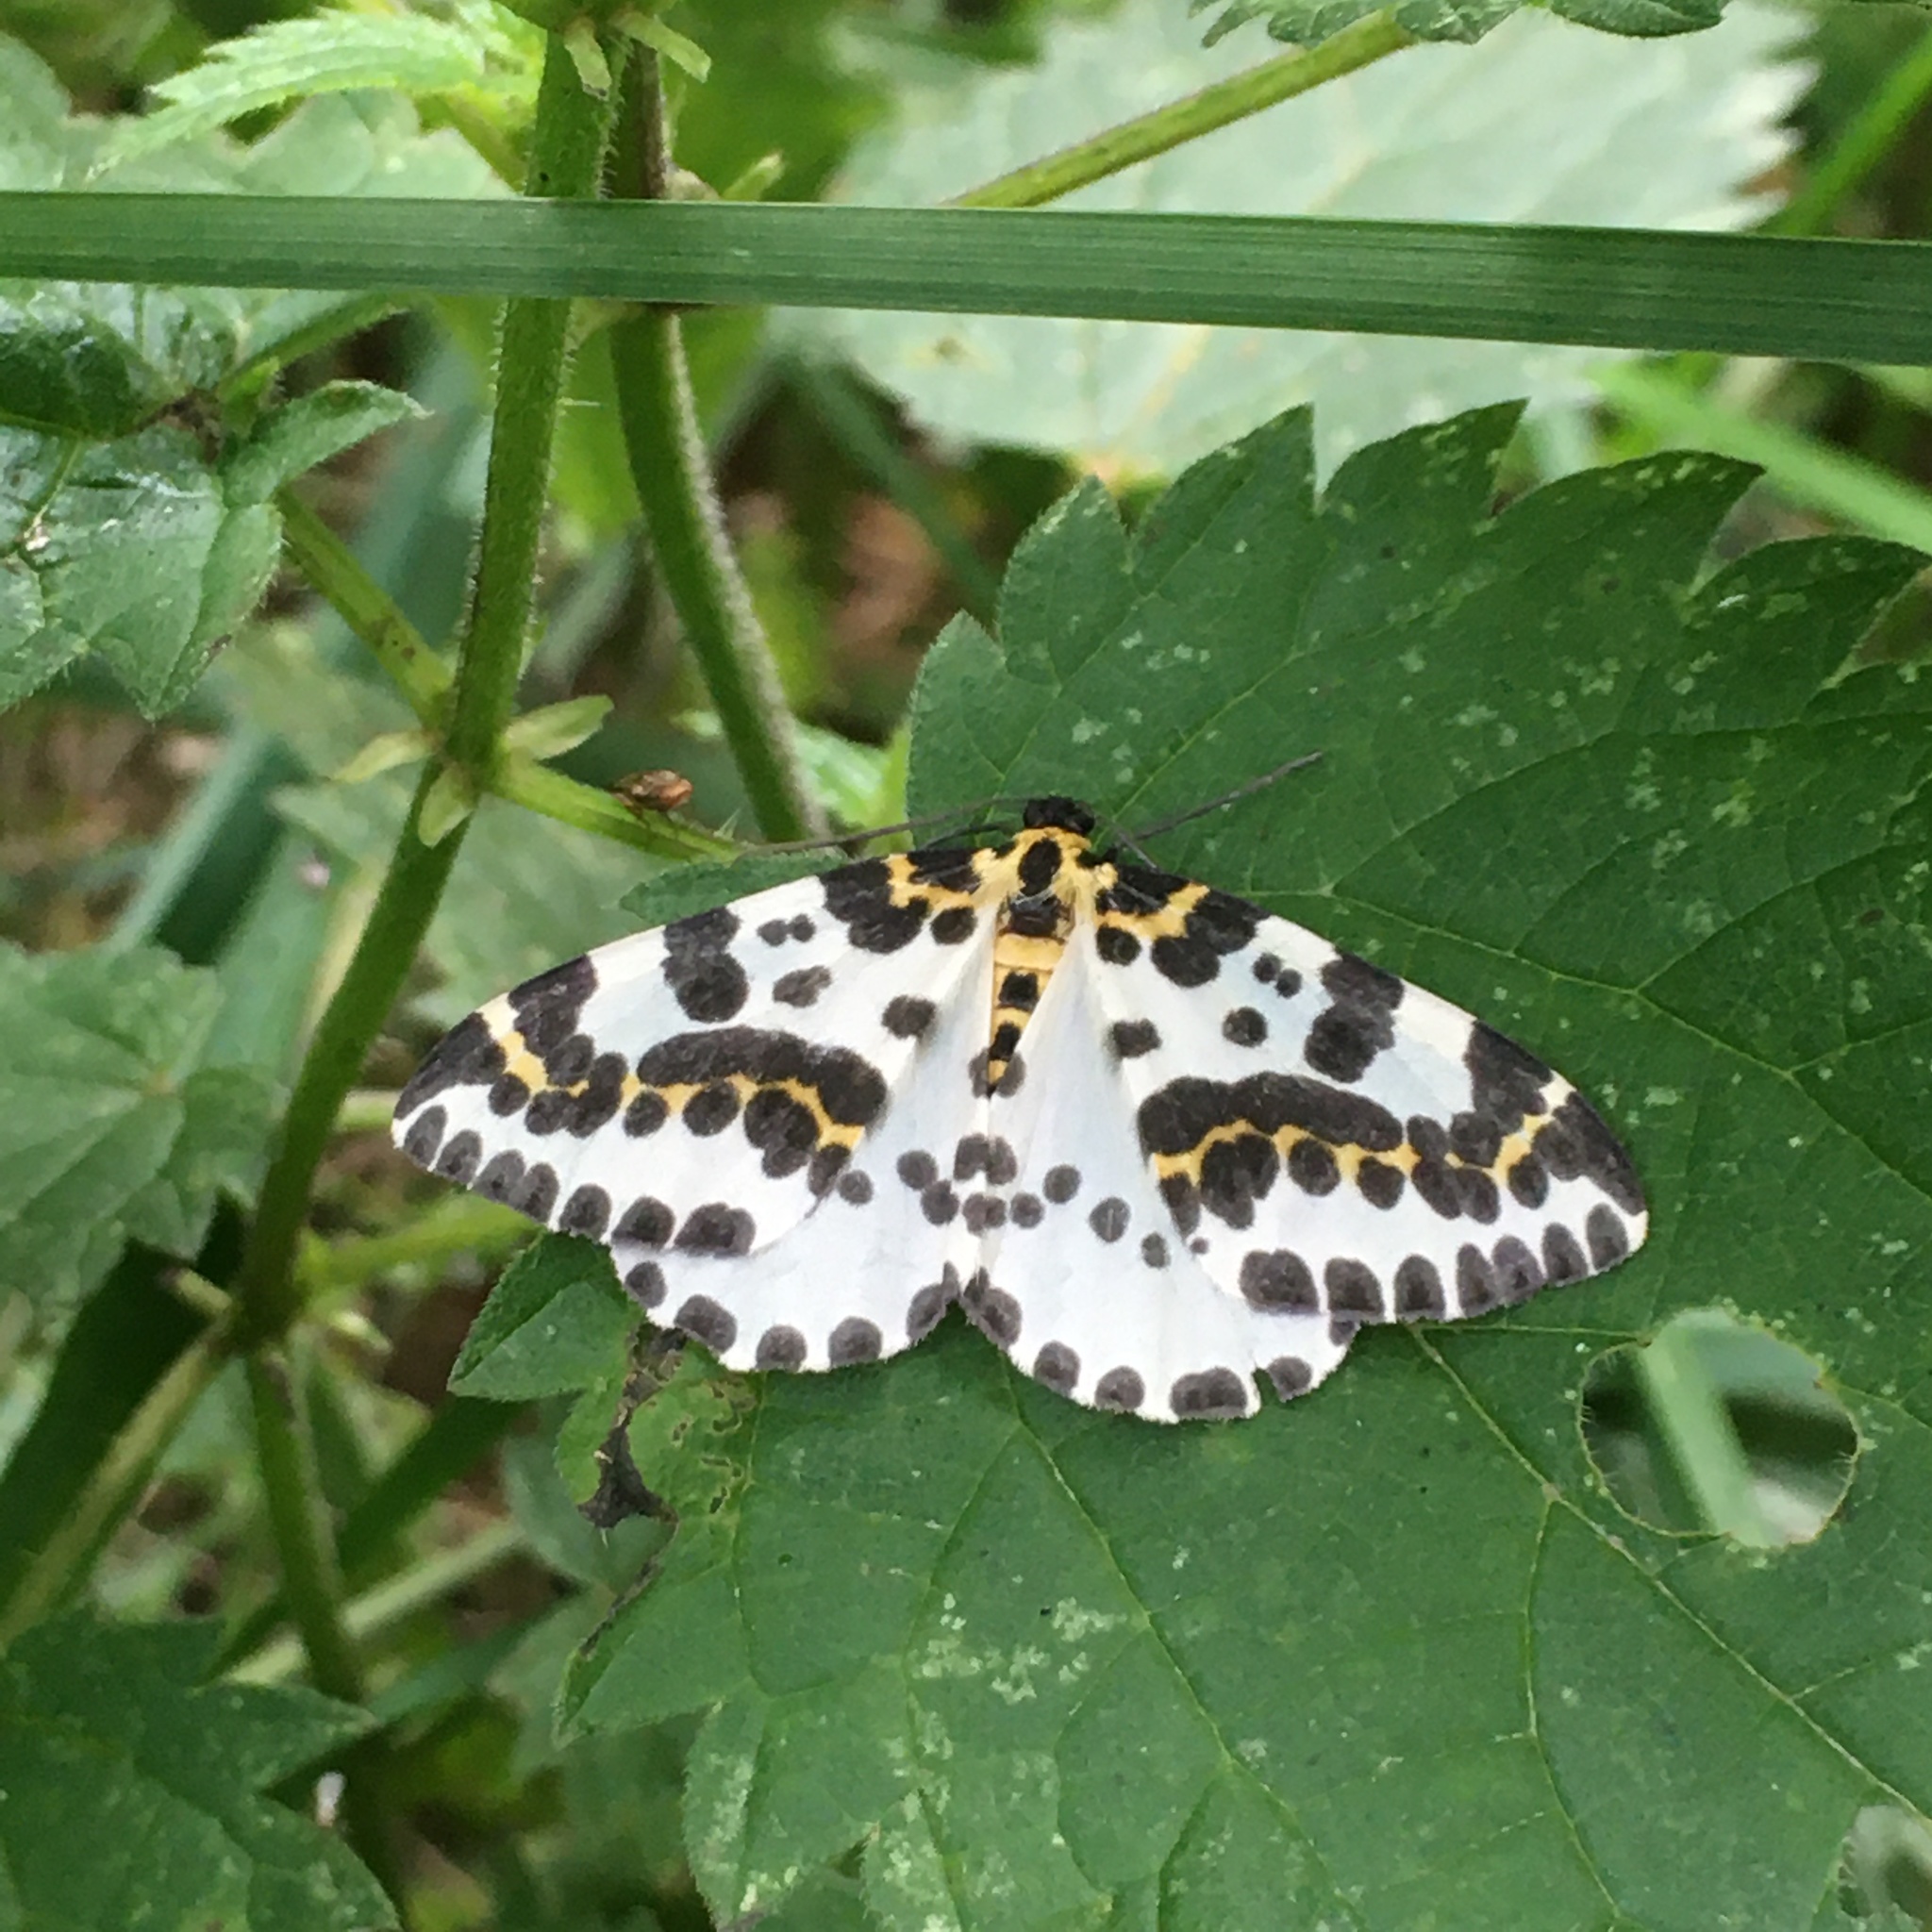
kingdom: Animalia
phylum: Arthropoda
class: Insecta
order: Lepidoptera
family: Geometridae
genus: Abraxas
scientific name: Abraxas grossulariata
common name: Magpie
